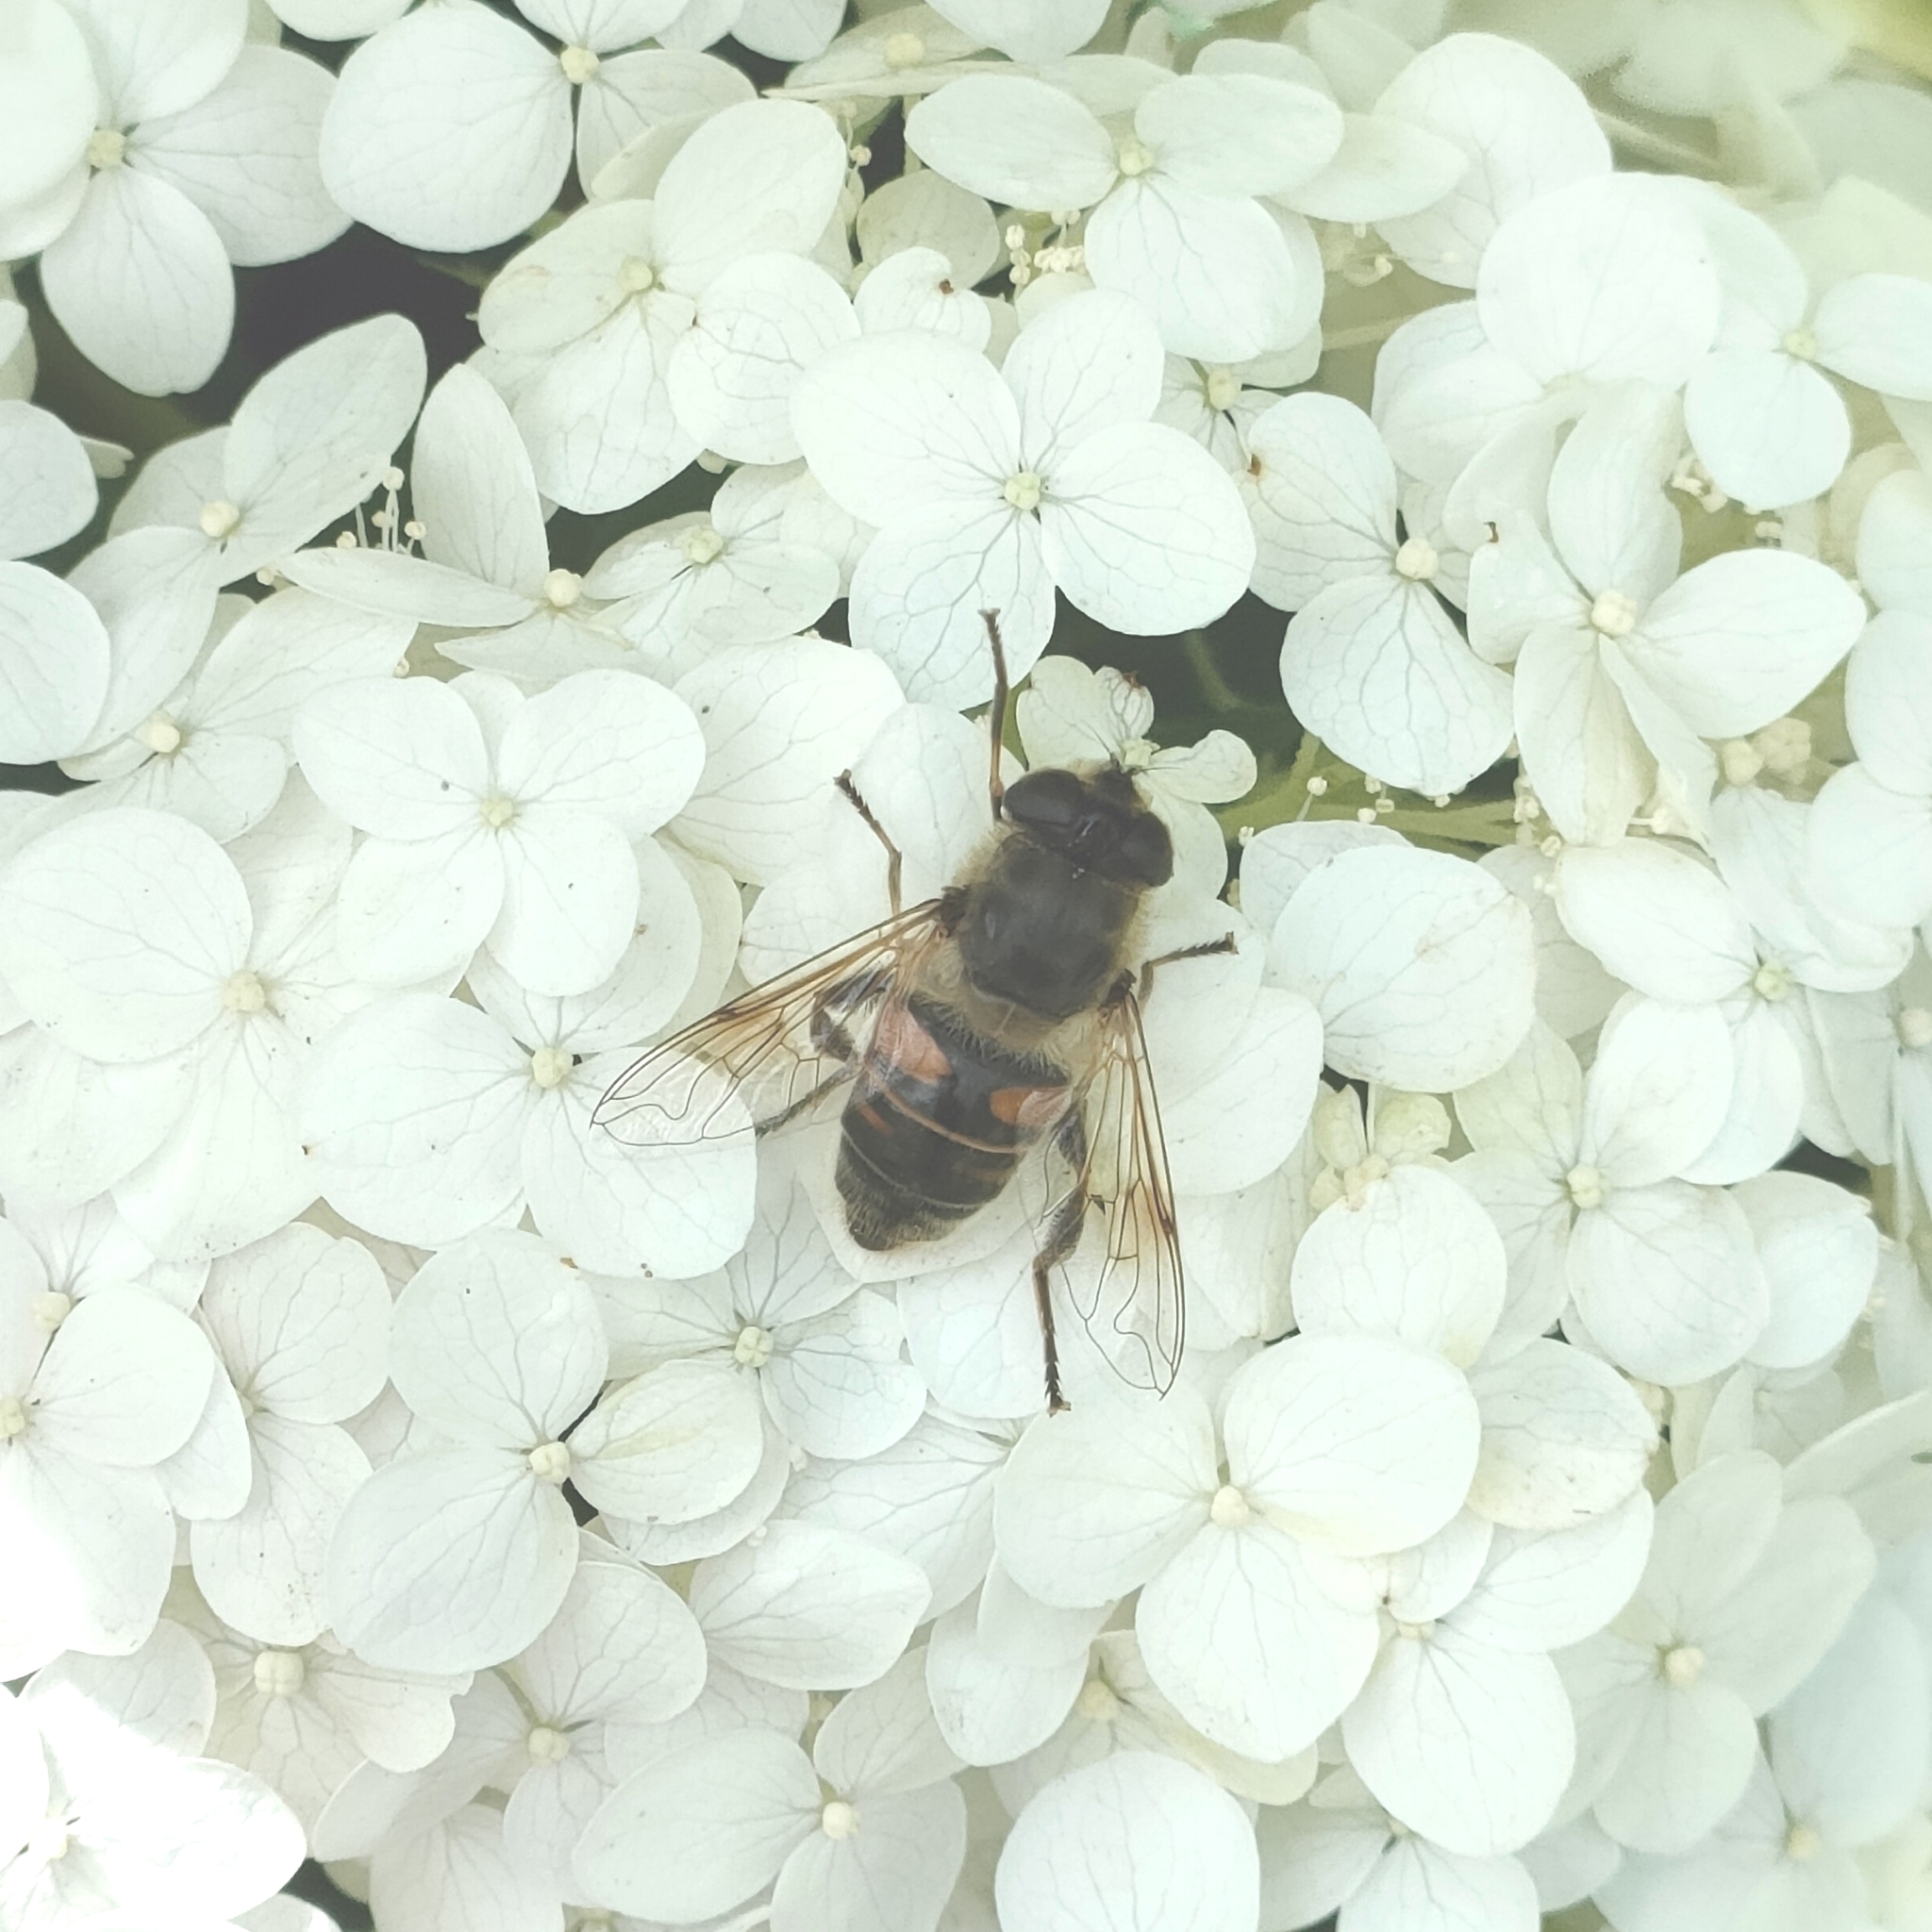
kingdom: Animalia
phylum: Arthropoda
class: Insecta
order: Diptera
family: Syrphidae
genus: Eristalis
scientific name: Eristalis tenax
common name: Drone fly
